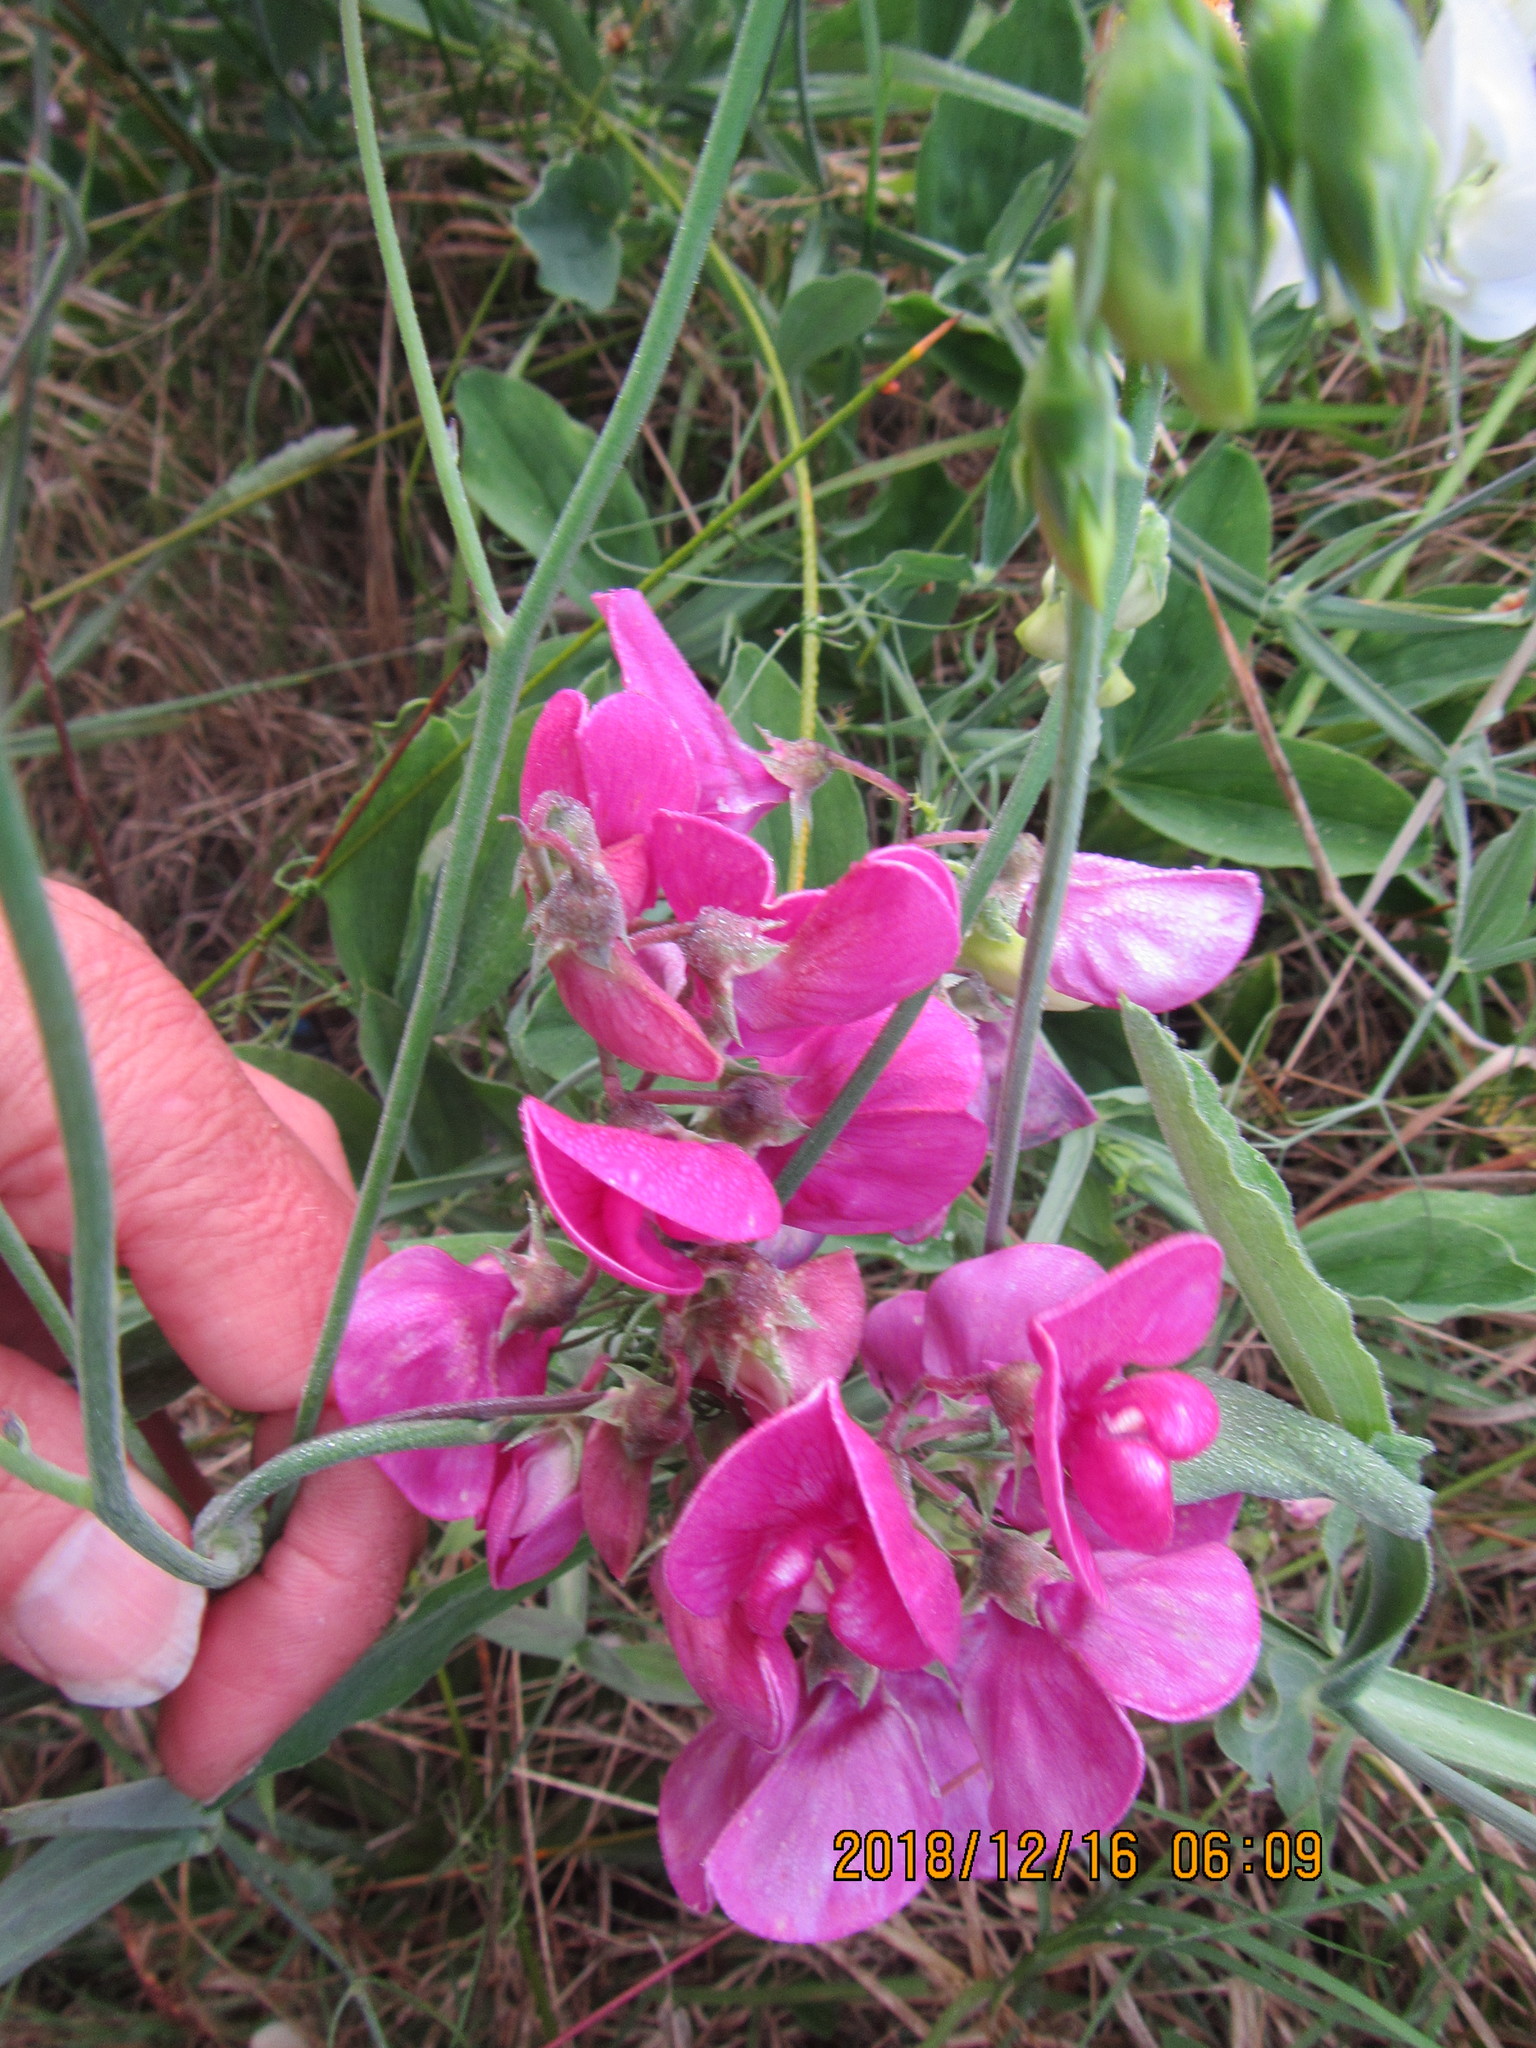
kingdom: Plantae
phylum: Tracheophyta
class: Magnoliopsida
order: Fabales
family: Fabaceae
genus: Lathyrus
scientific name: Lathyrus latifolius
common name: Perennial pea
